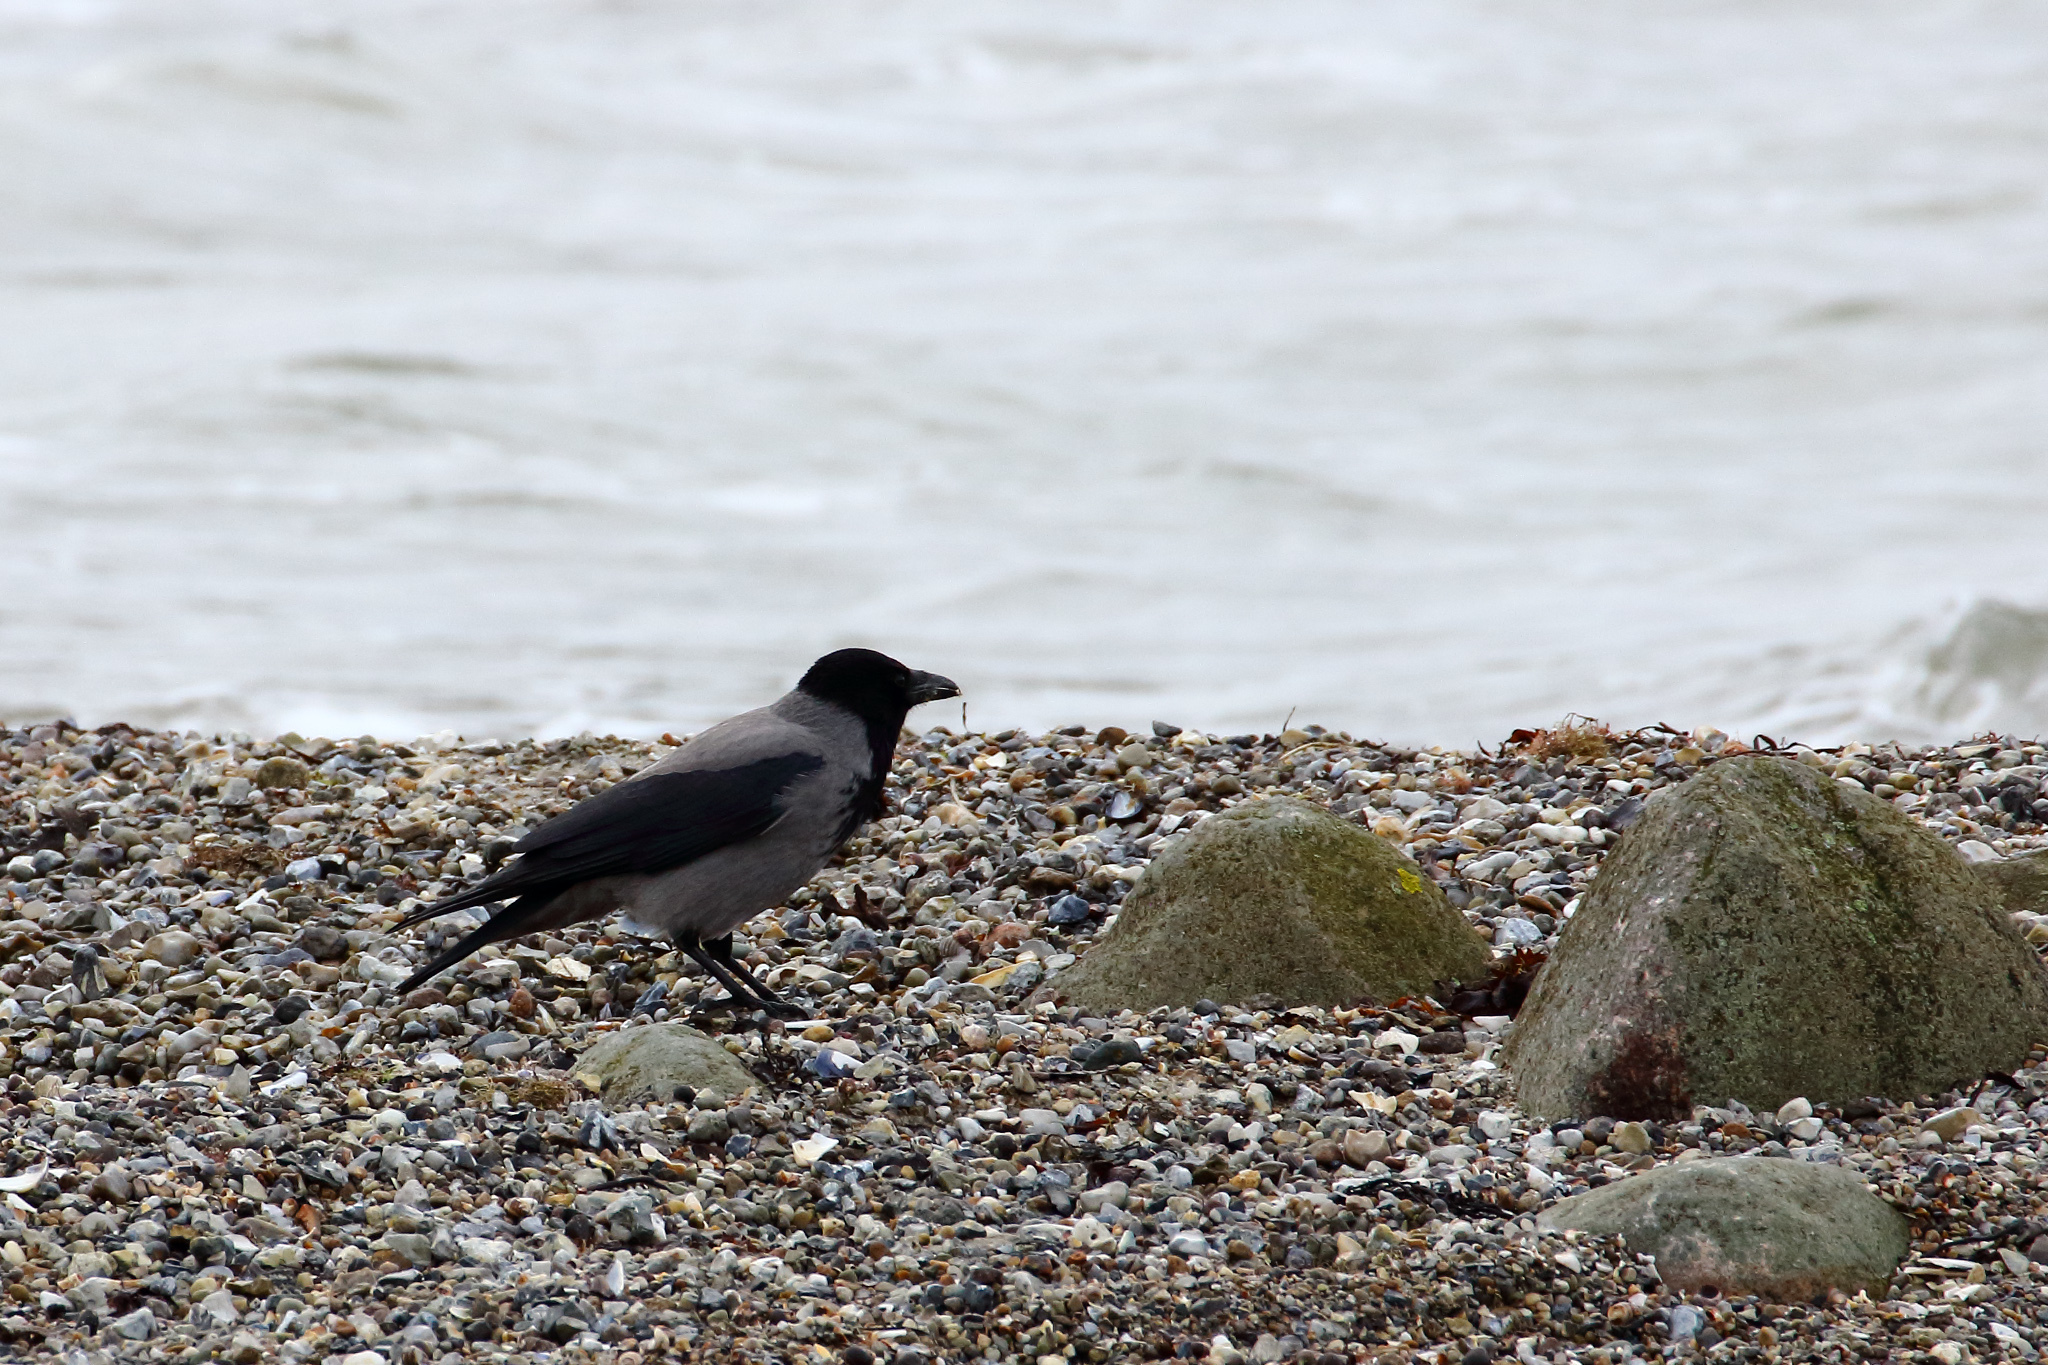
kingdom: Animalia
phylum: Chordata
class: Aves
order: Passeriformes
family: Corvidae
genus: Corvus
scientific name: Corvus cornix
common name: Hooded crow
